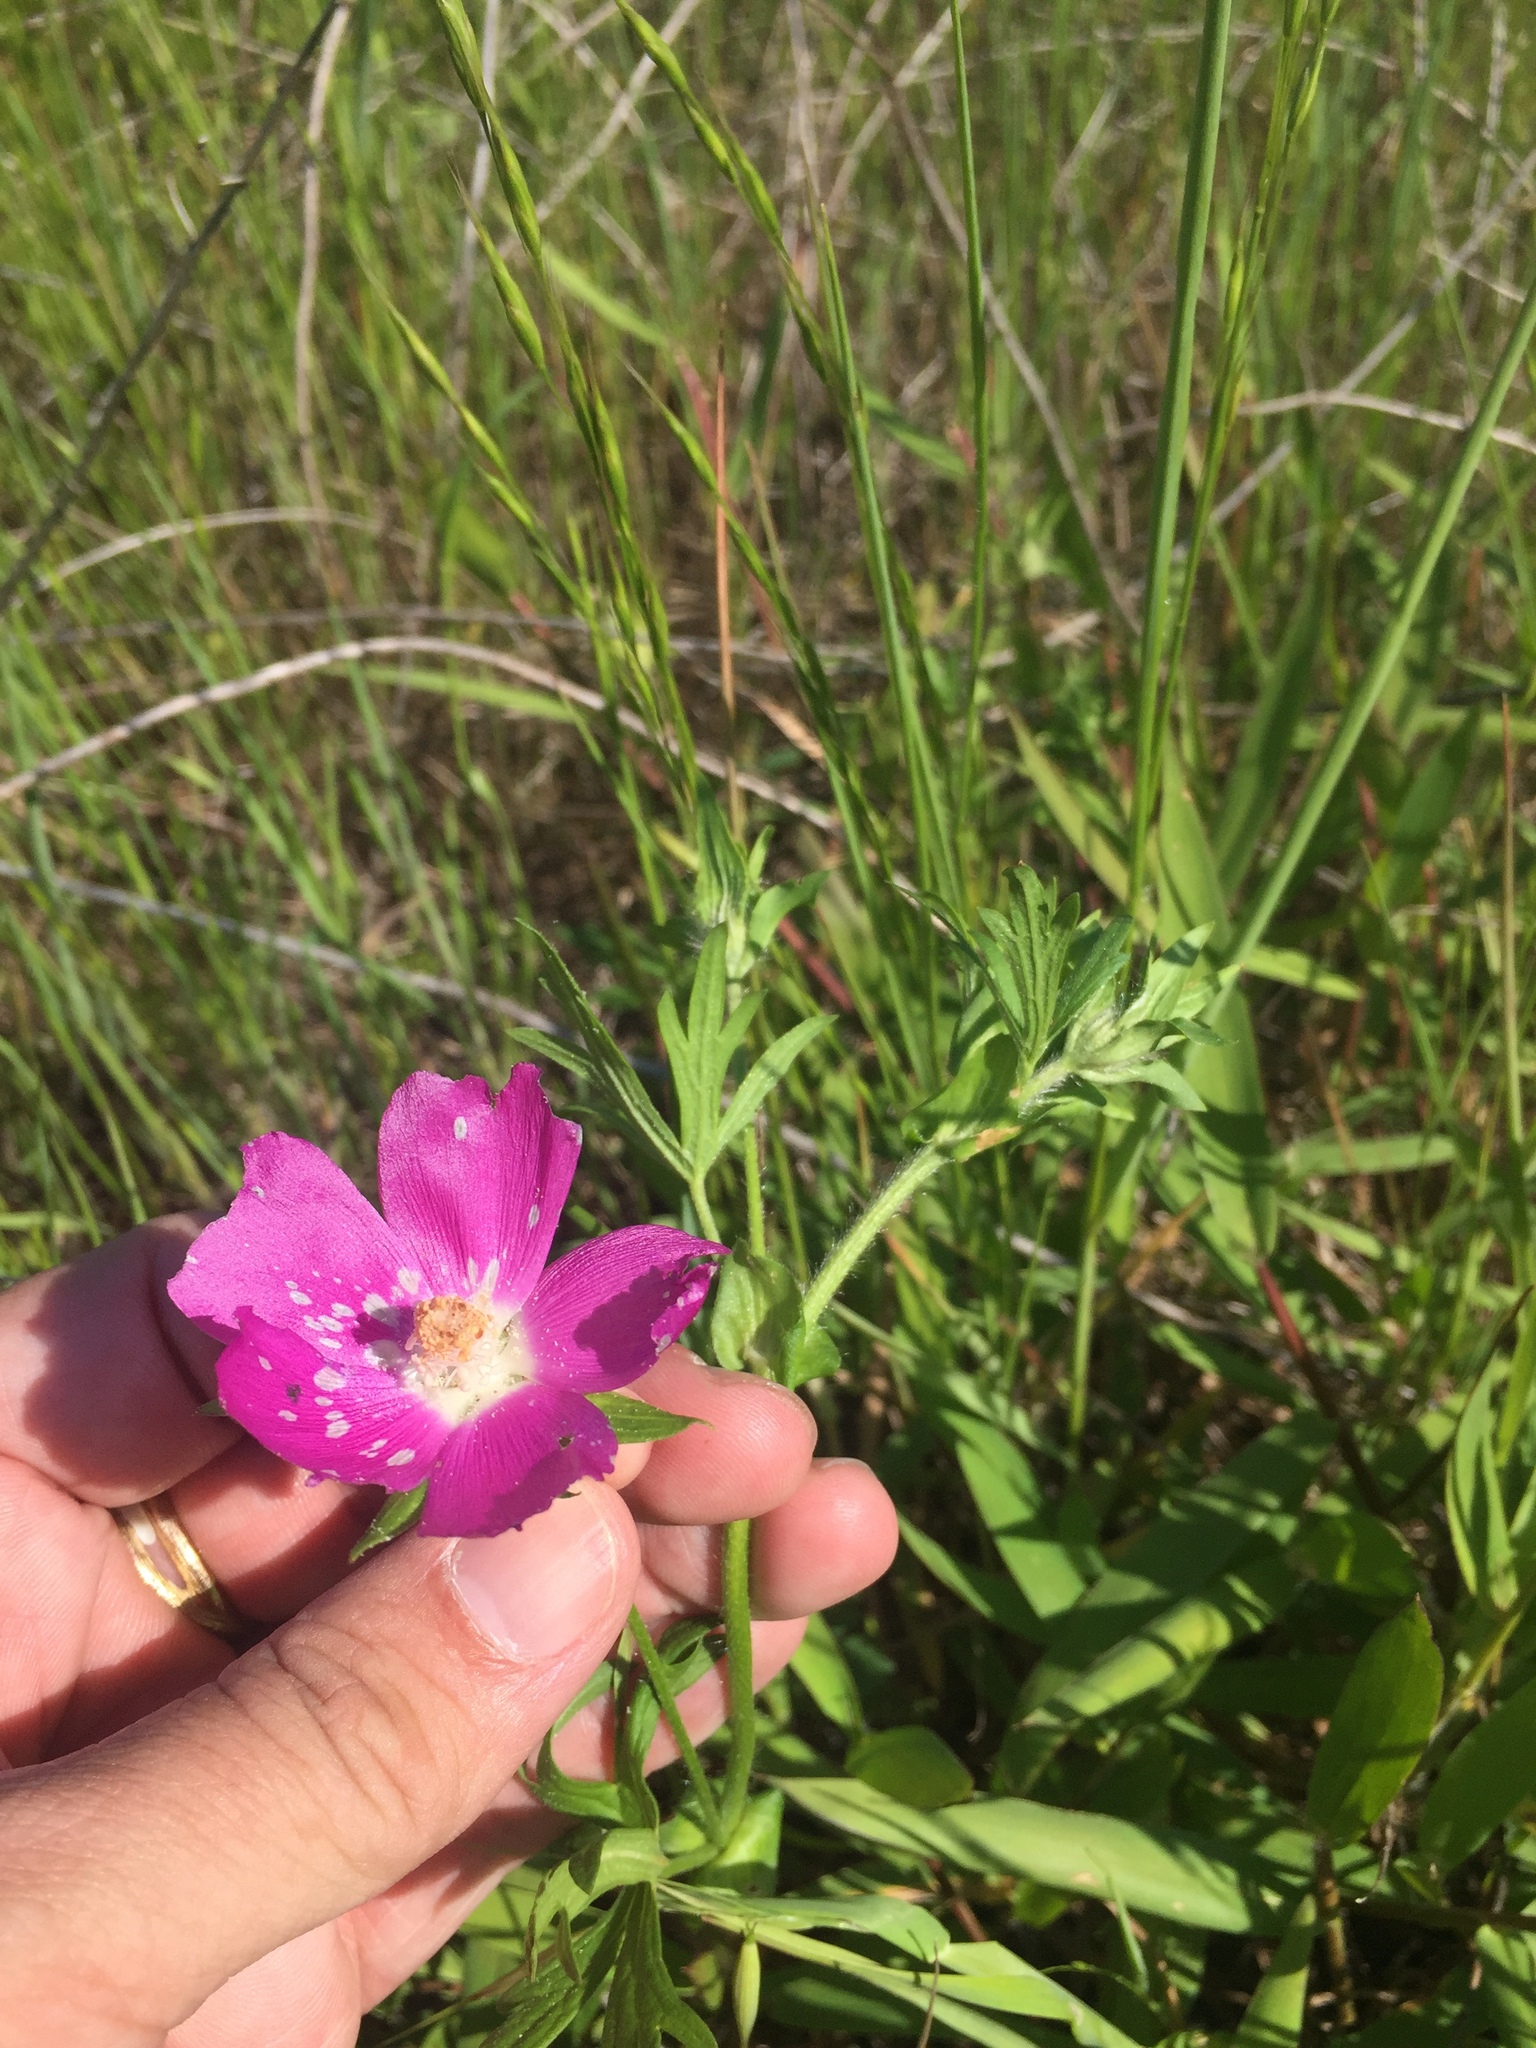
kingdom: Plantae
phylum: Tracheophyta
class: Magnoliopsida
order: Malvales
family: Malvaceae
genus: Callirhoe
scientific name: Callirhoe involucrata
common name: Purple poppy-mallow
